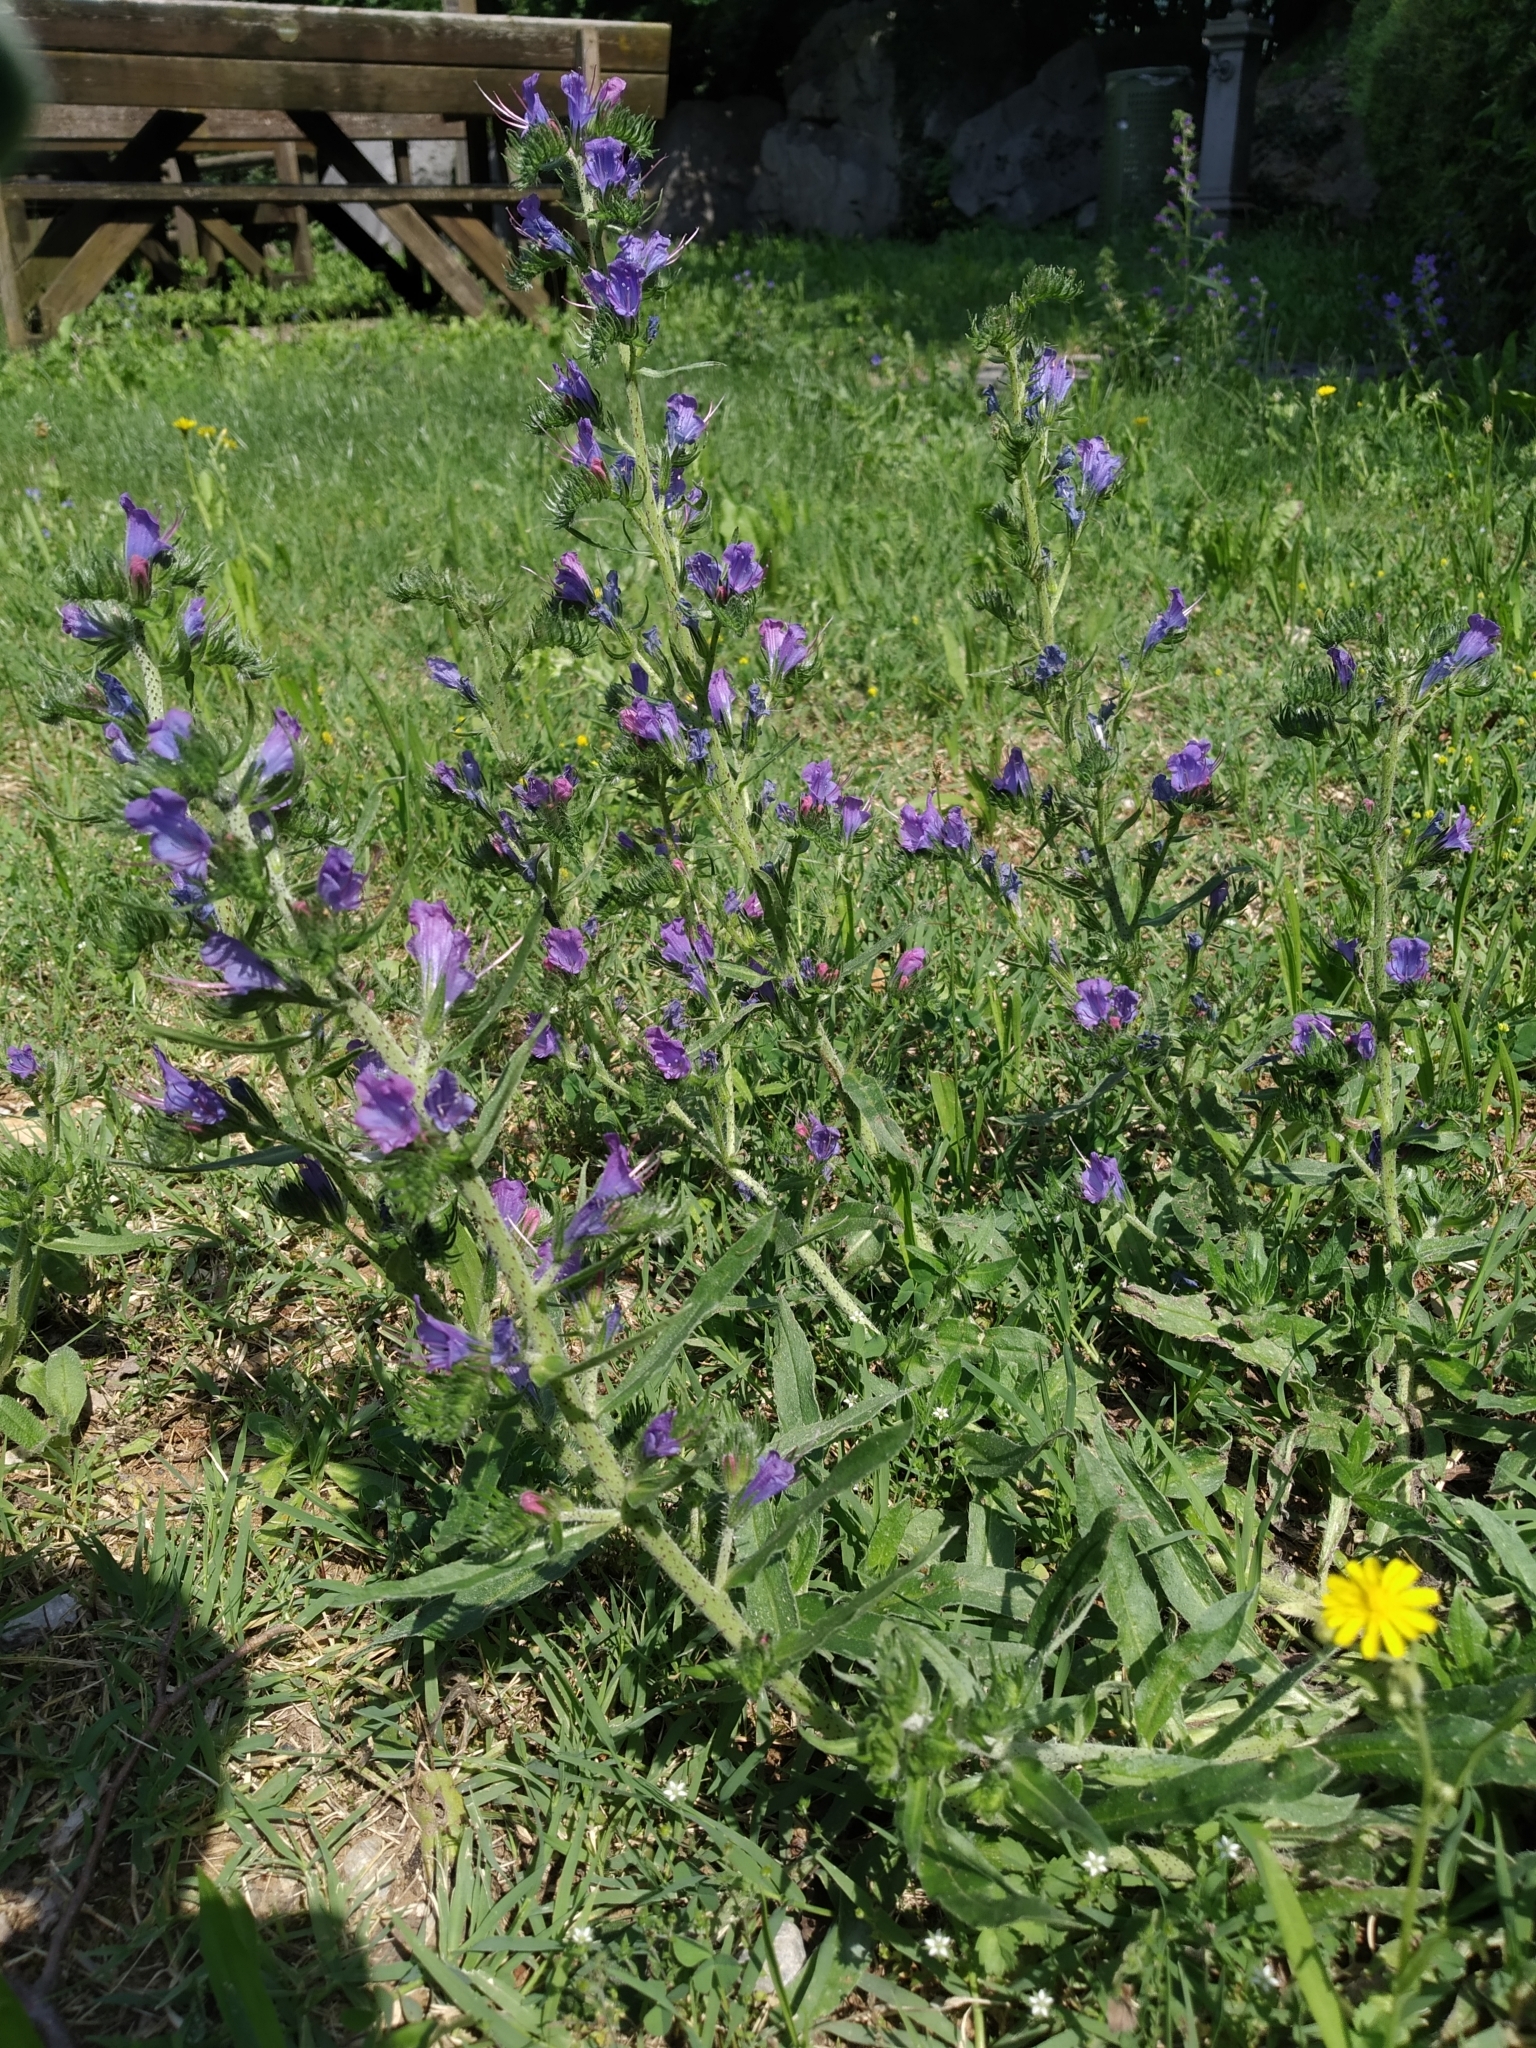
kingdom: Plantae
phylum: Tracheophyta
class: Magnoliopsida
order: Boraginales
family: Boraginaceae
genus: Echium
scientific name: Echium vulgare
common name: Common viper's bugloss
